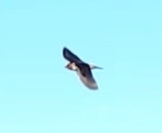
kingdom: Animalia
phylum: Chordata
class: Aves
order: Passeriformes
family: Hirundinidae
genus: Petrochelidon
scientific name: Petrochelidon pyrrhonota
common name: American cliff swallow
